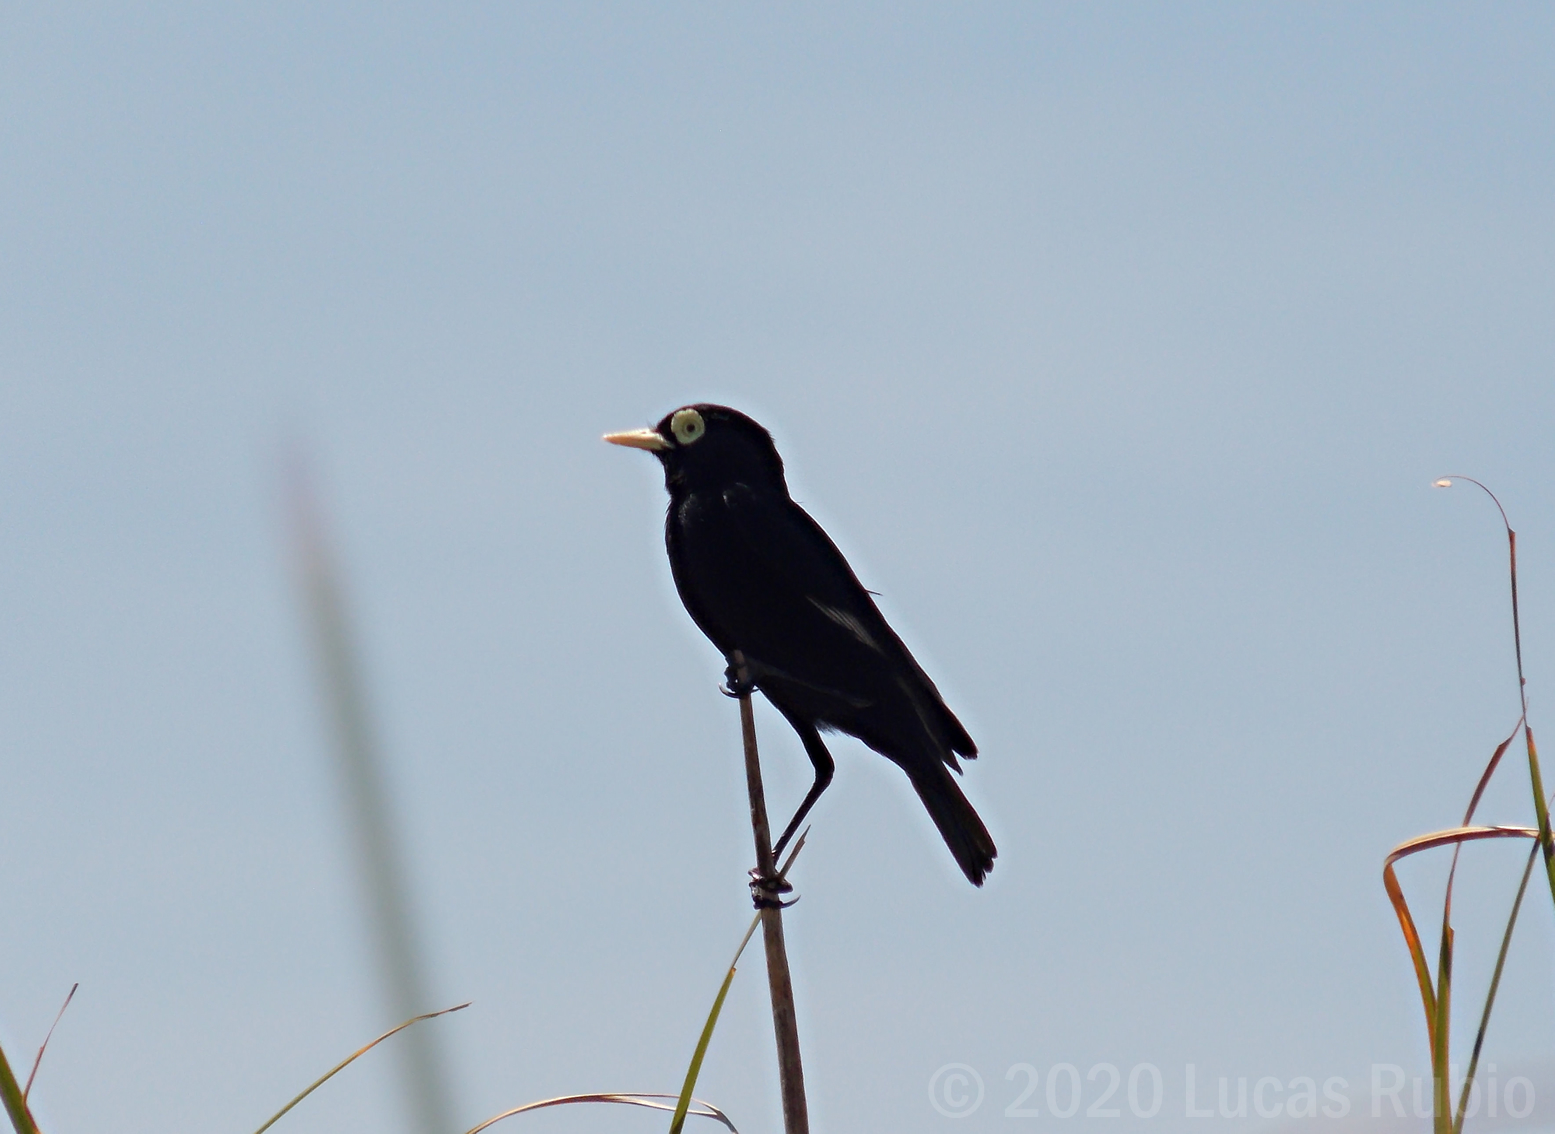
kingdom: Animalia
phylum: Chordata
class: Aves
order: Passeriformes
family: Tyrannidae
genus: Hymenops
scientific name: Hymenops perspicillatus
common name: Spectacled tyrant
